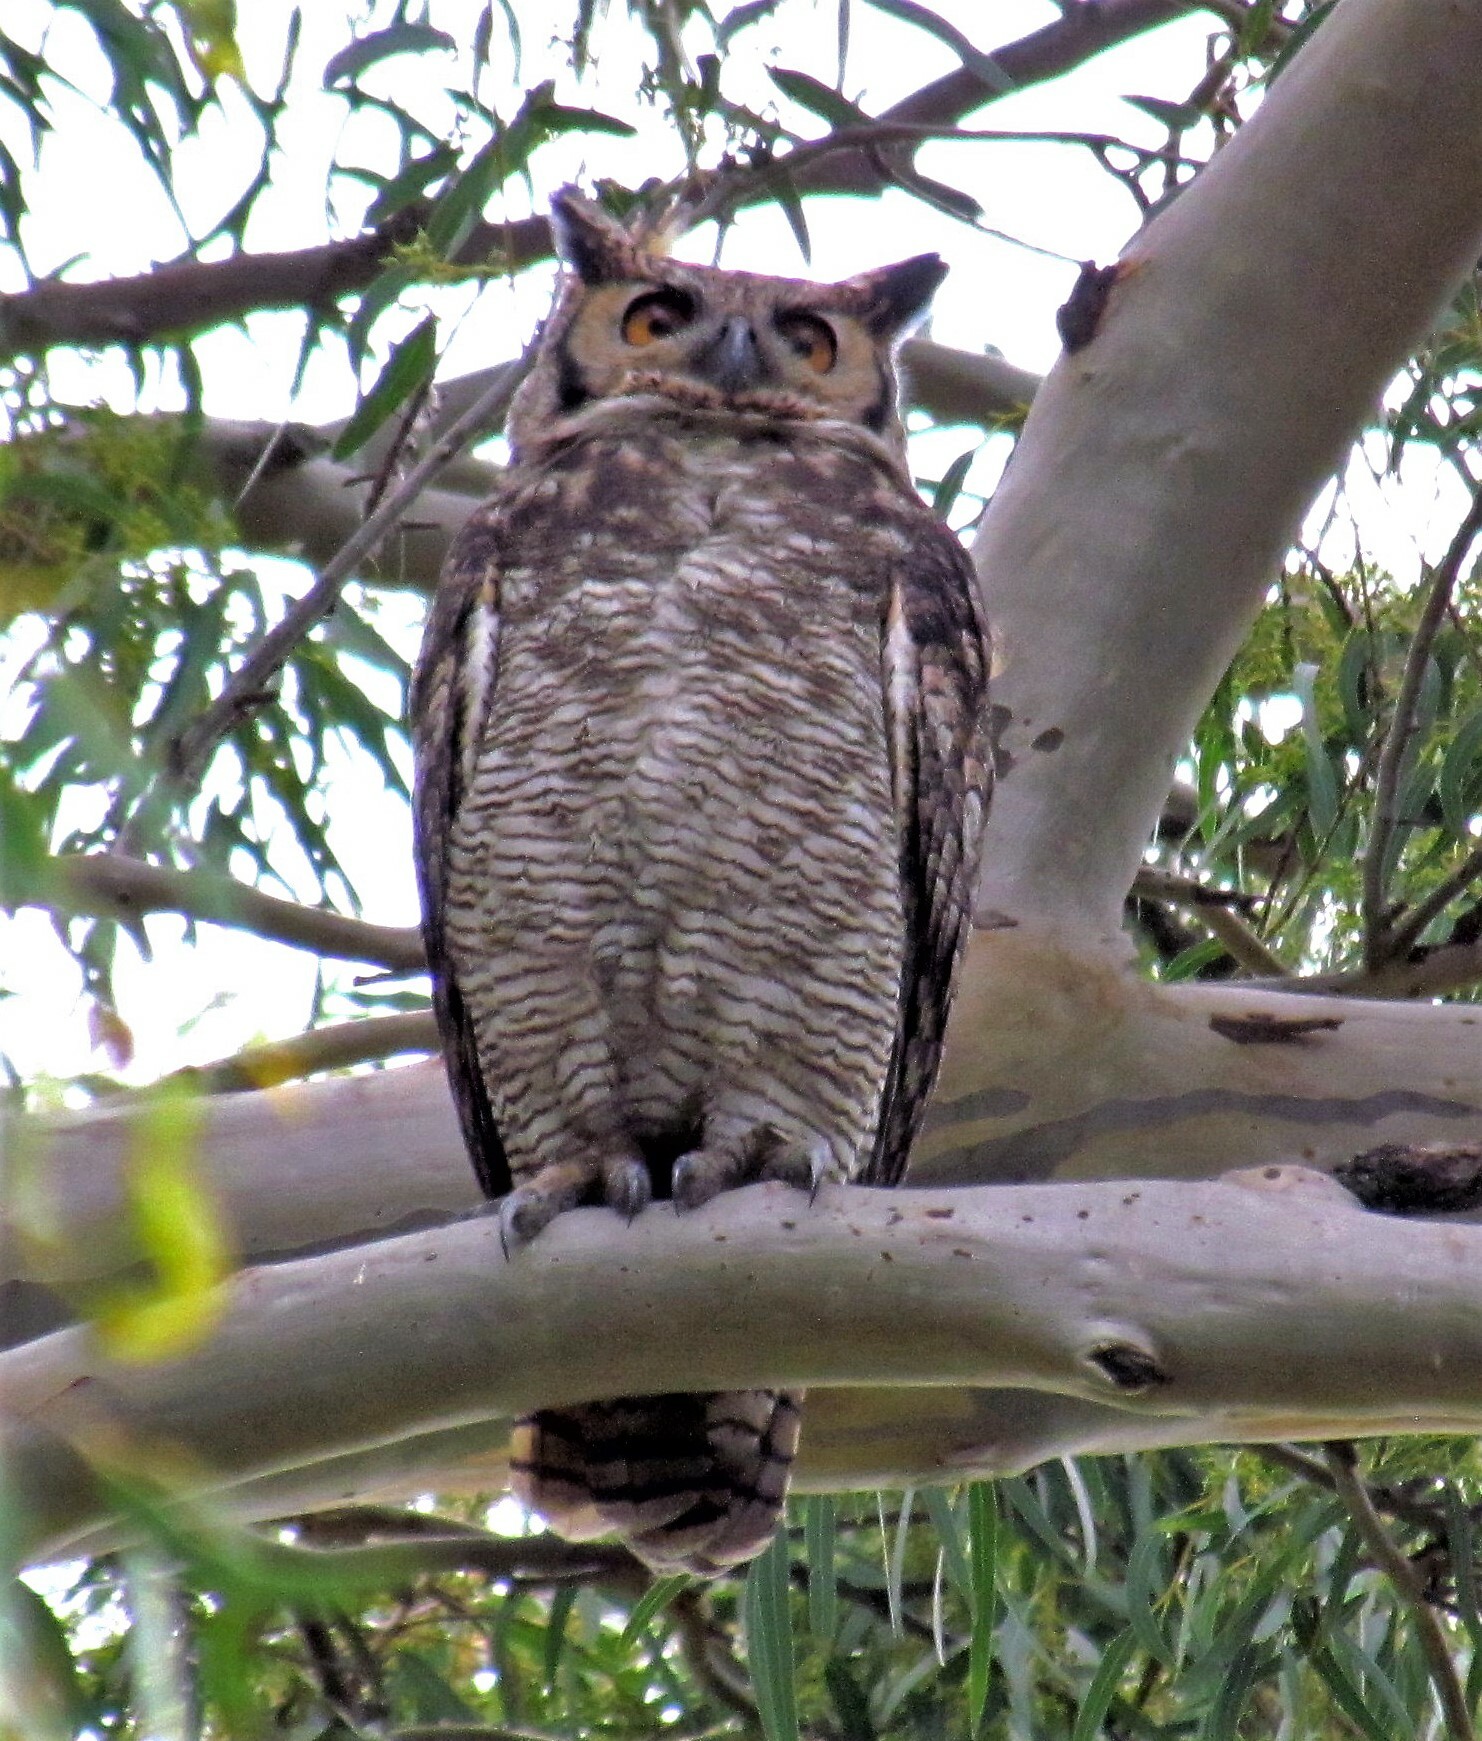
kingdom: Animalia
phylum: Chordata
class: Aves
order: Strigiformes
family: Strigidae
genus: Bubo
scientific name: Bubo virginianus
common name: Great horned owl
